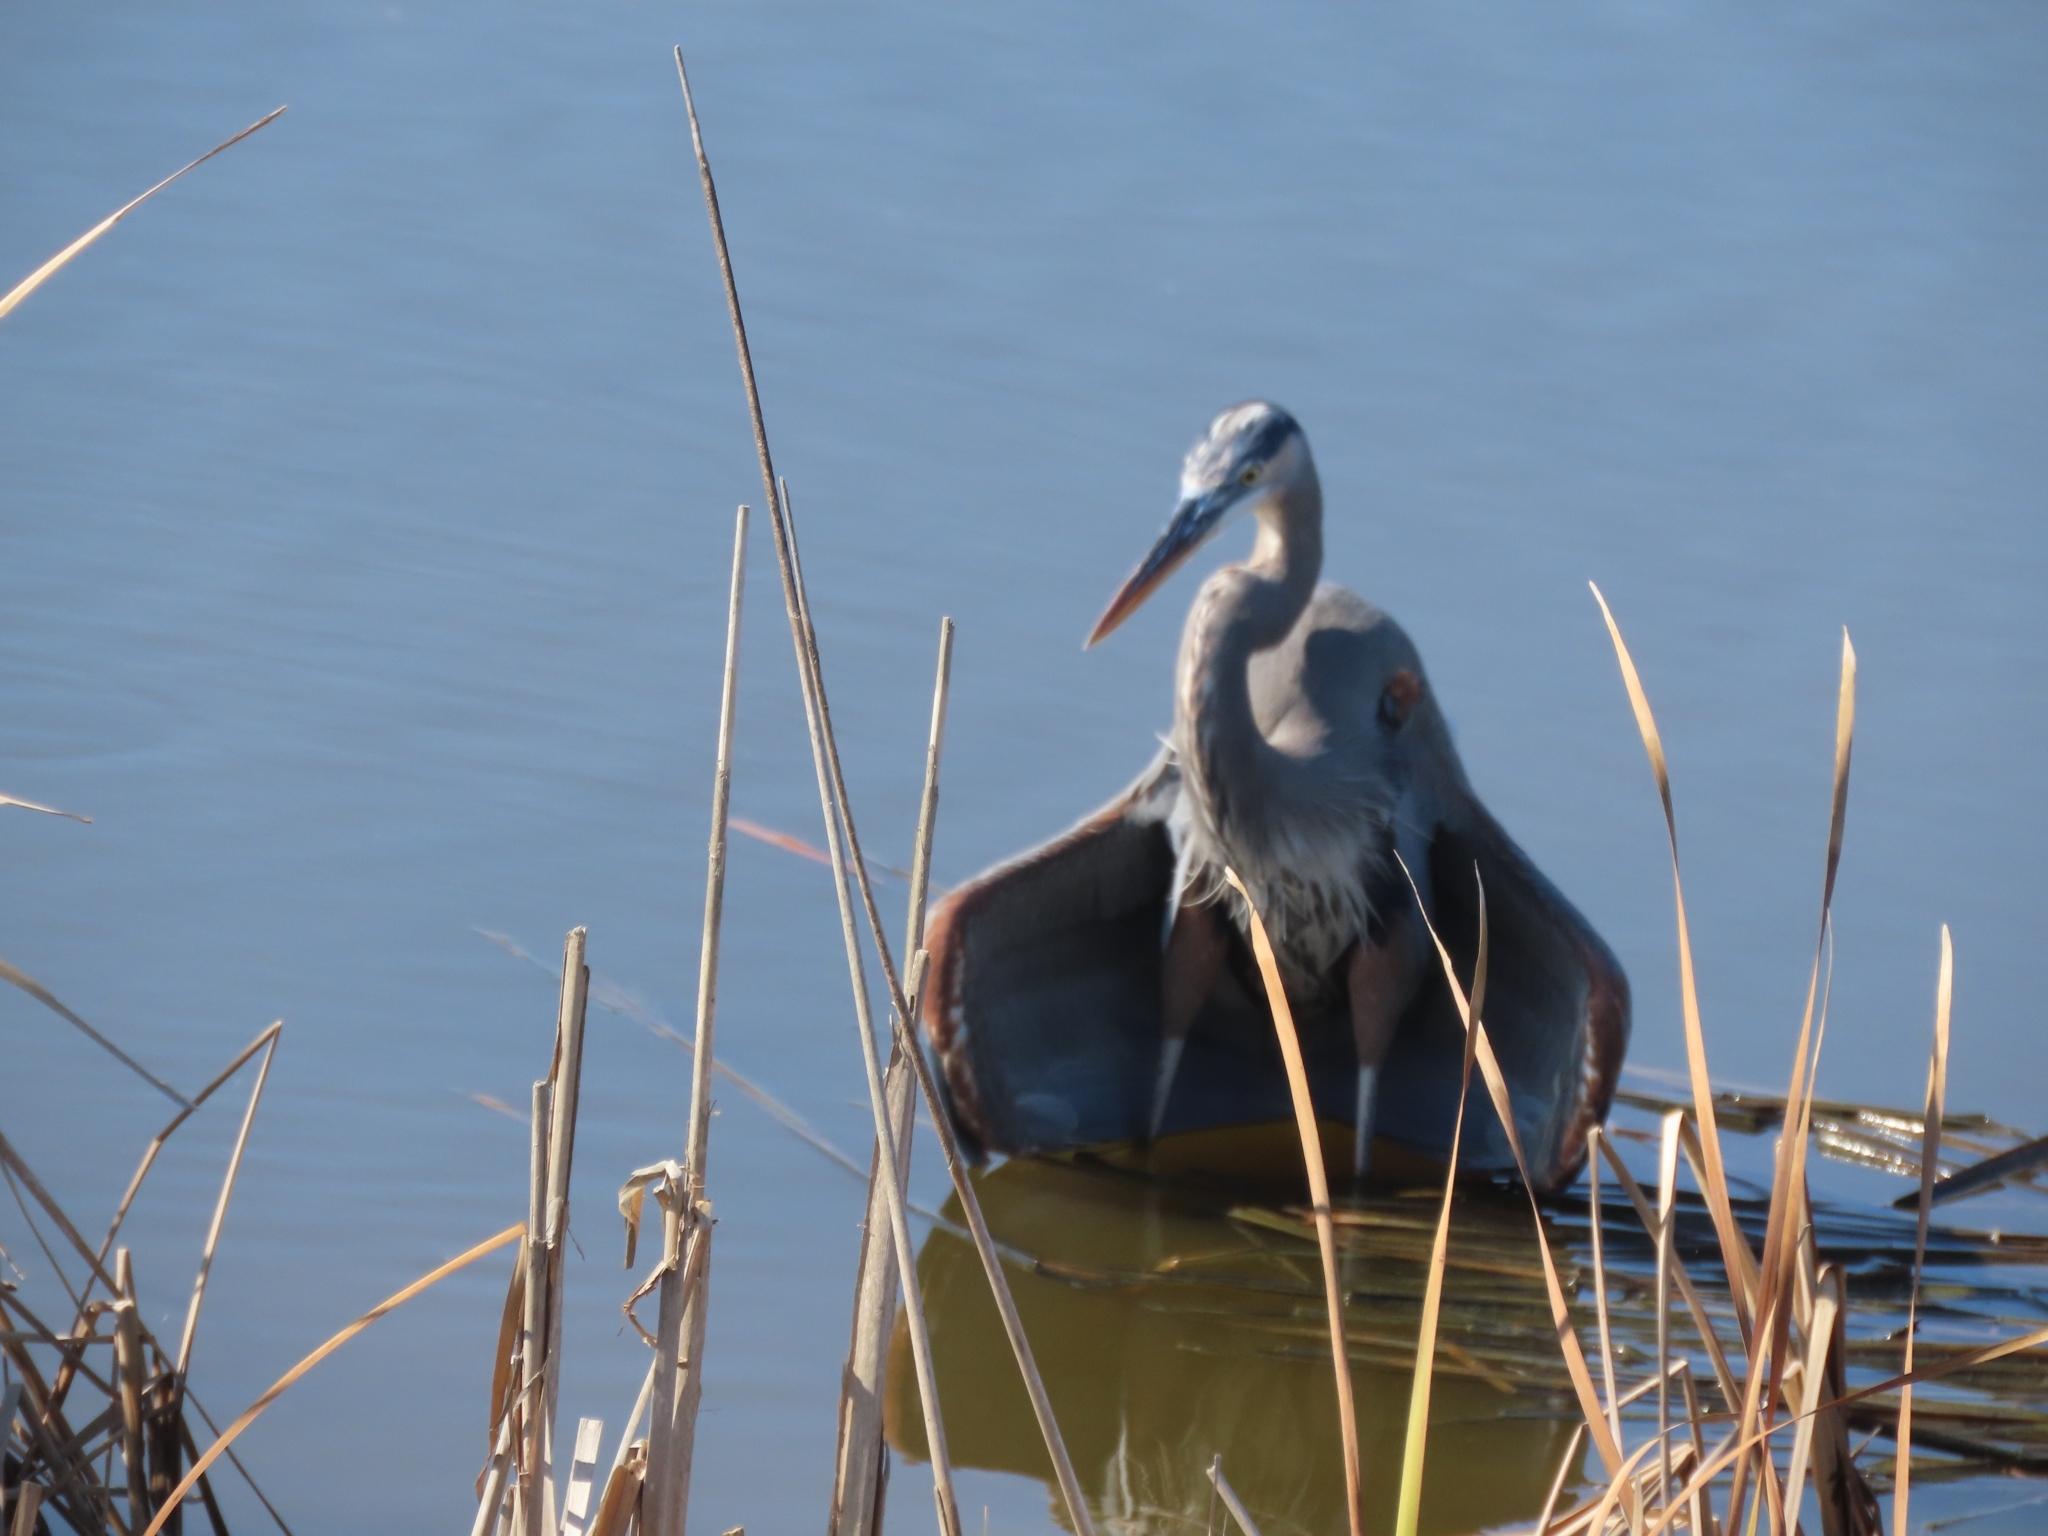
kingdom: Animalia
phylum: Chordata
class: Aves
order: Pelecaniformes
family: Ardeidae
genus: Ardea
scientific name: Ardea herodias
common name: Great blue heron
